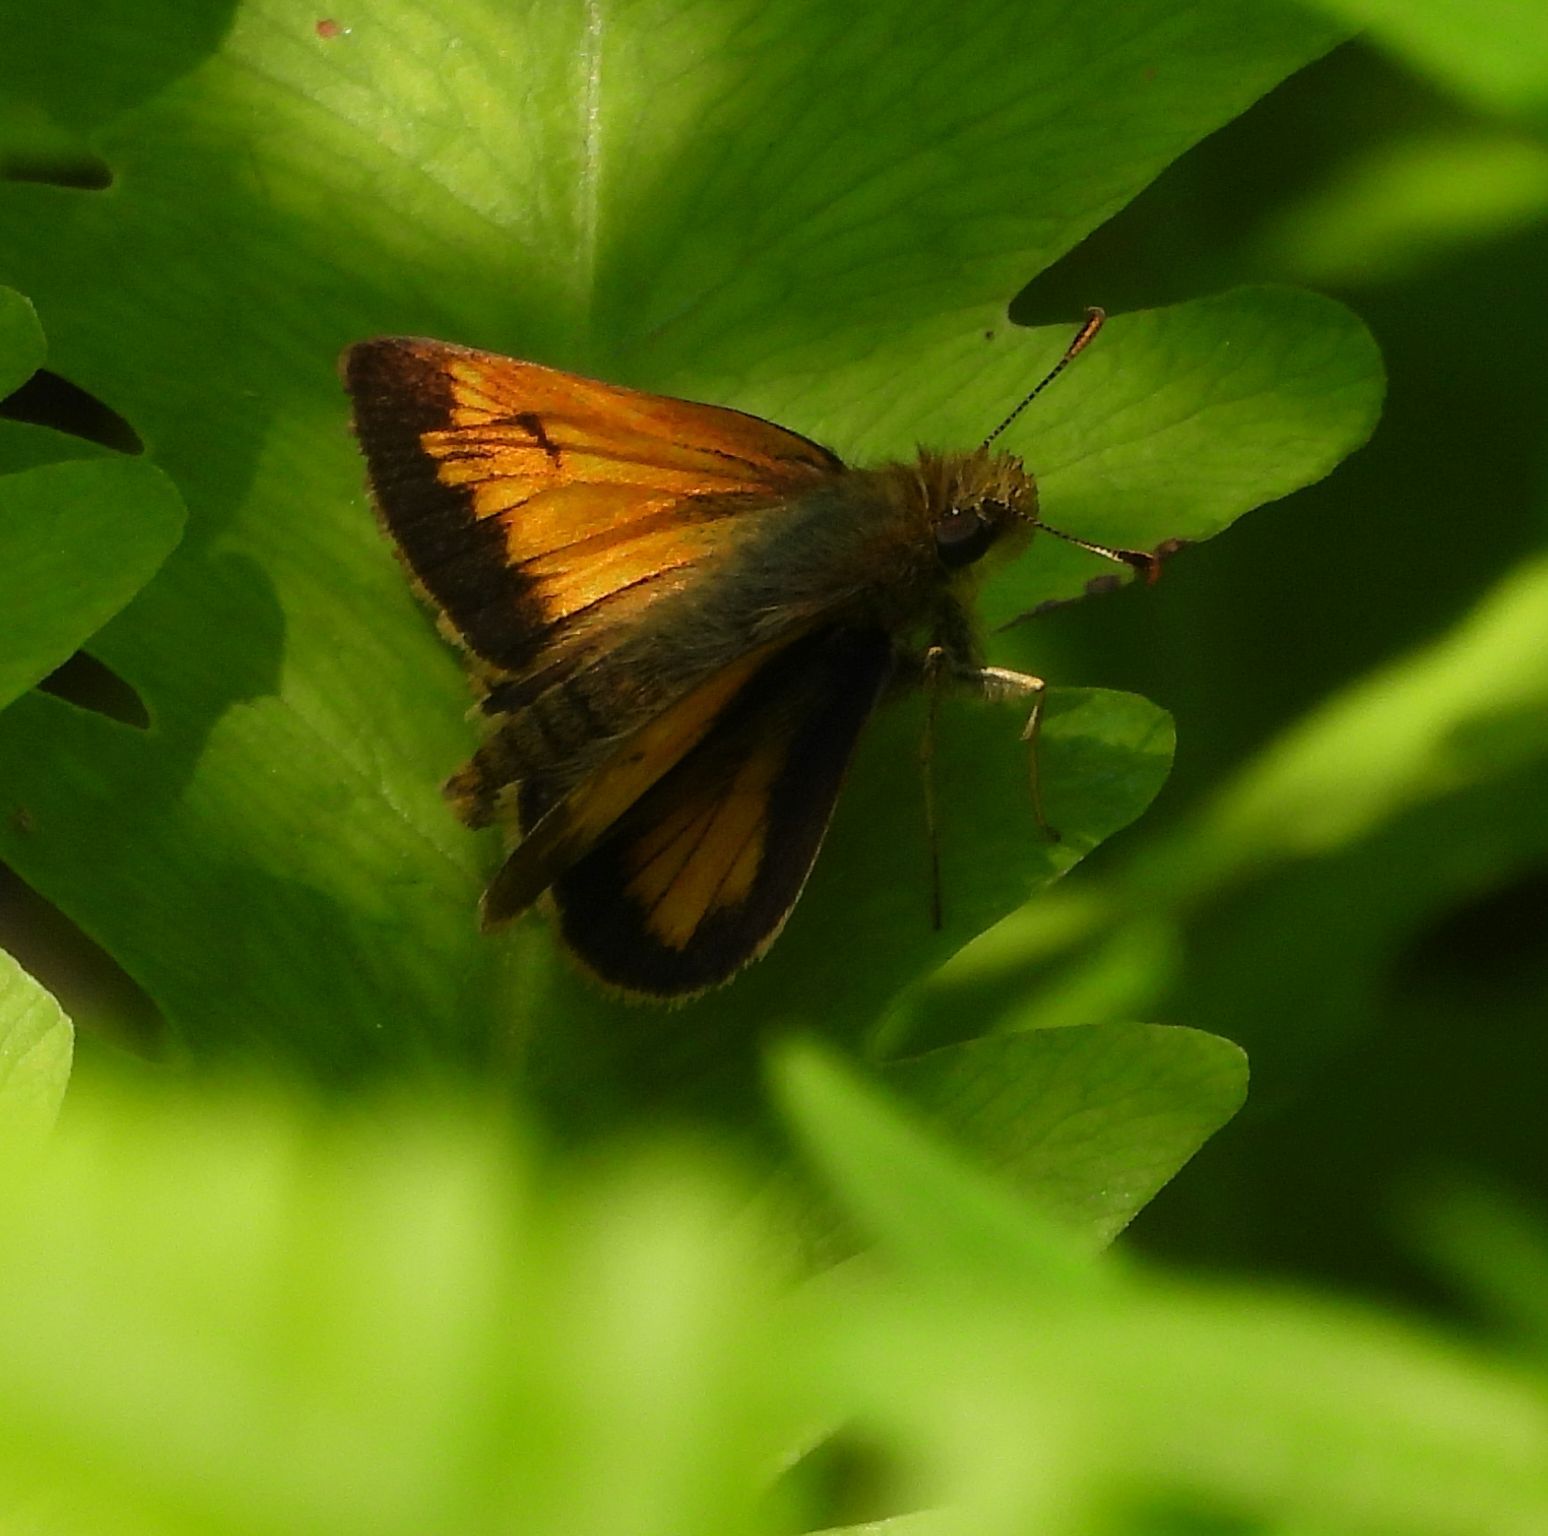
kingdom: Animalia
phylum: Arthropoda
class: Insecta
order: Lepidoptera
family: Hesperiidae
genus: Lon
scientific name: Lon hobomok
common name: Hobomok skipper
